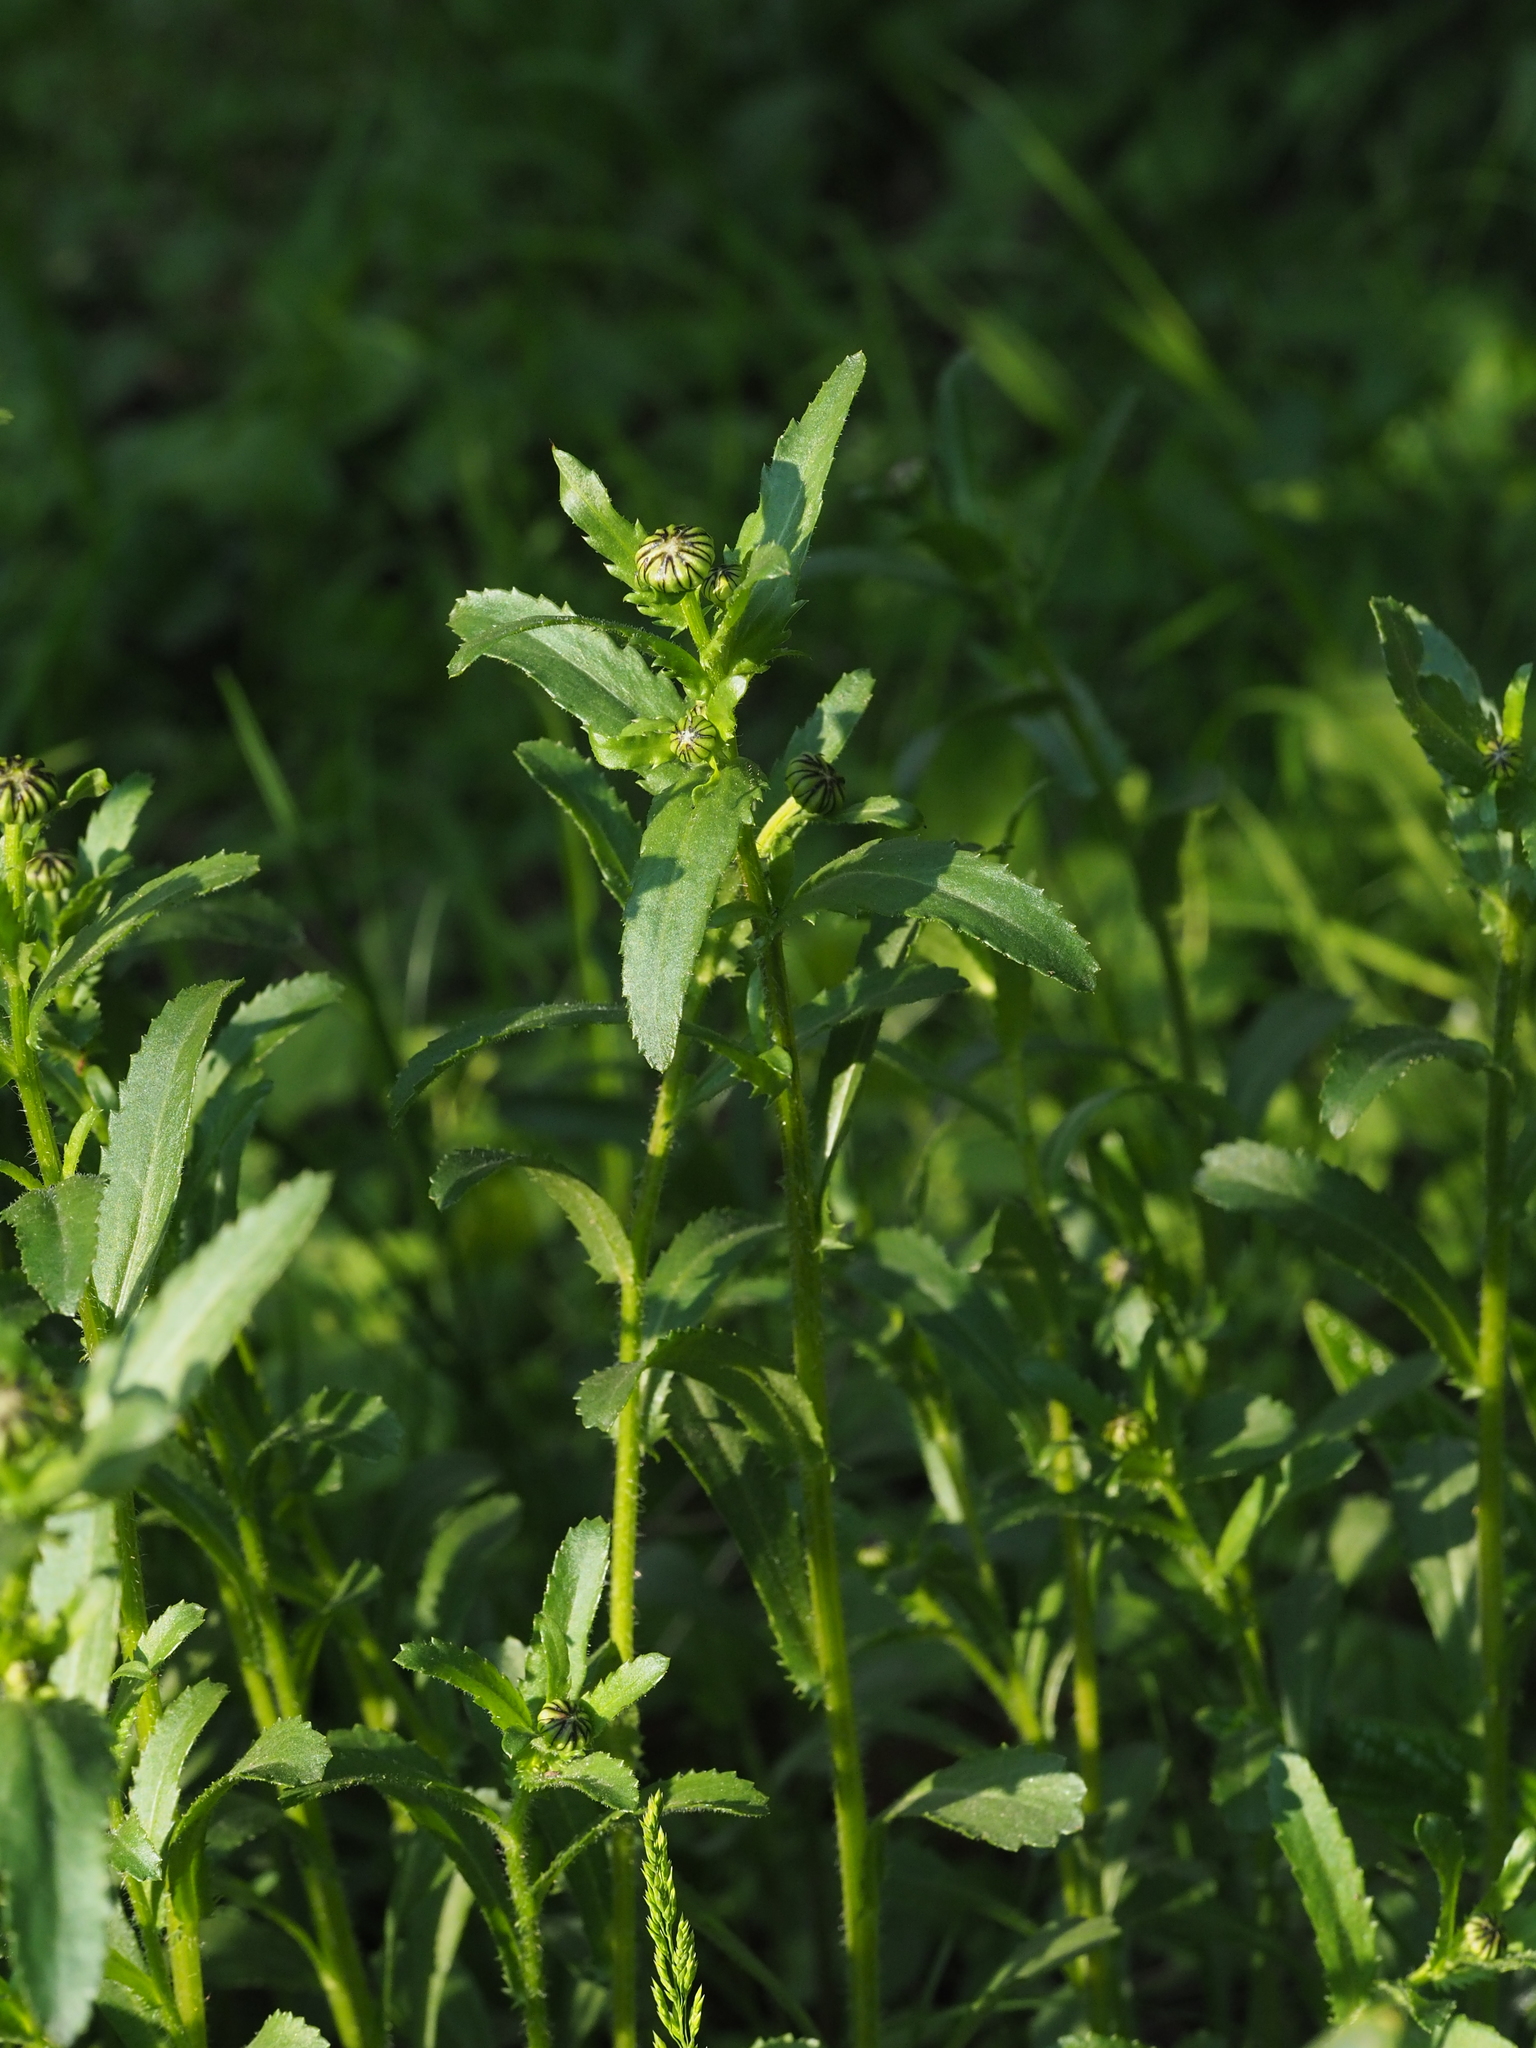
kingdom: Plantae
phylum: Tracheophyta
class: Magnoliopsida
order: Asterales
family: Asteraceae
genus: Leucanthemum
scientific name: Leucanthemum ircutianum
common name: Daisy
